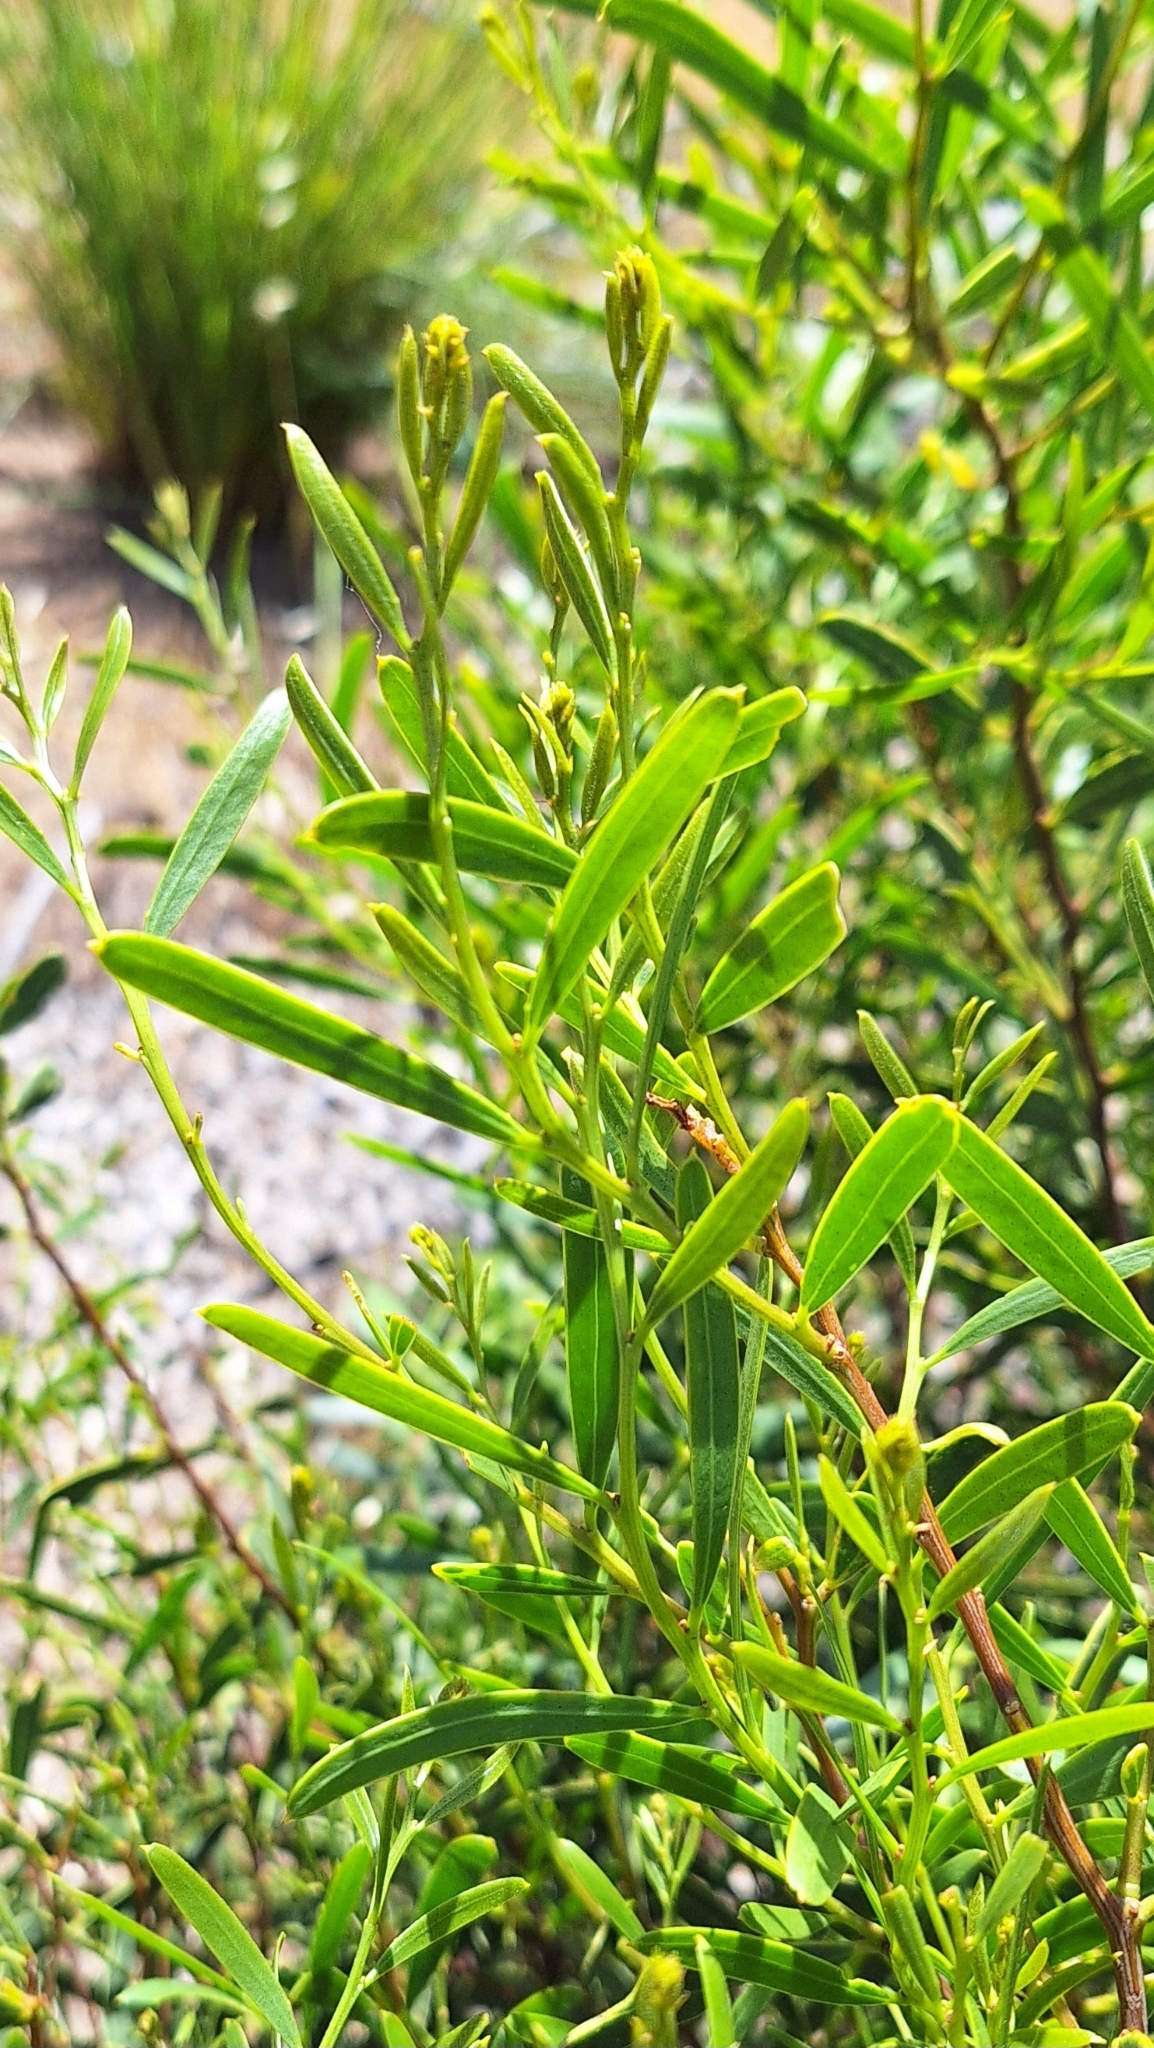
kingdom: Plantae
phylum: Tracheophyta
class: Magnoliopsida
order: Fabales
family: Fabaceae
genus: Acacia
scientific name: Acacia ligulata
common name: Dune wattle
